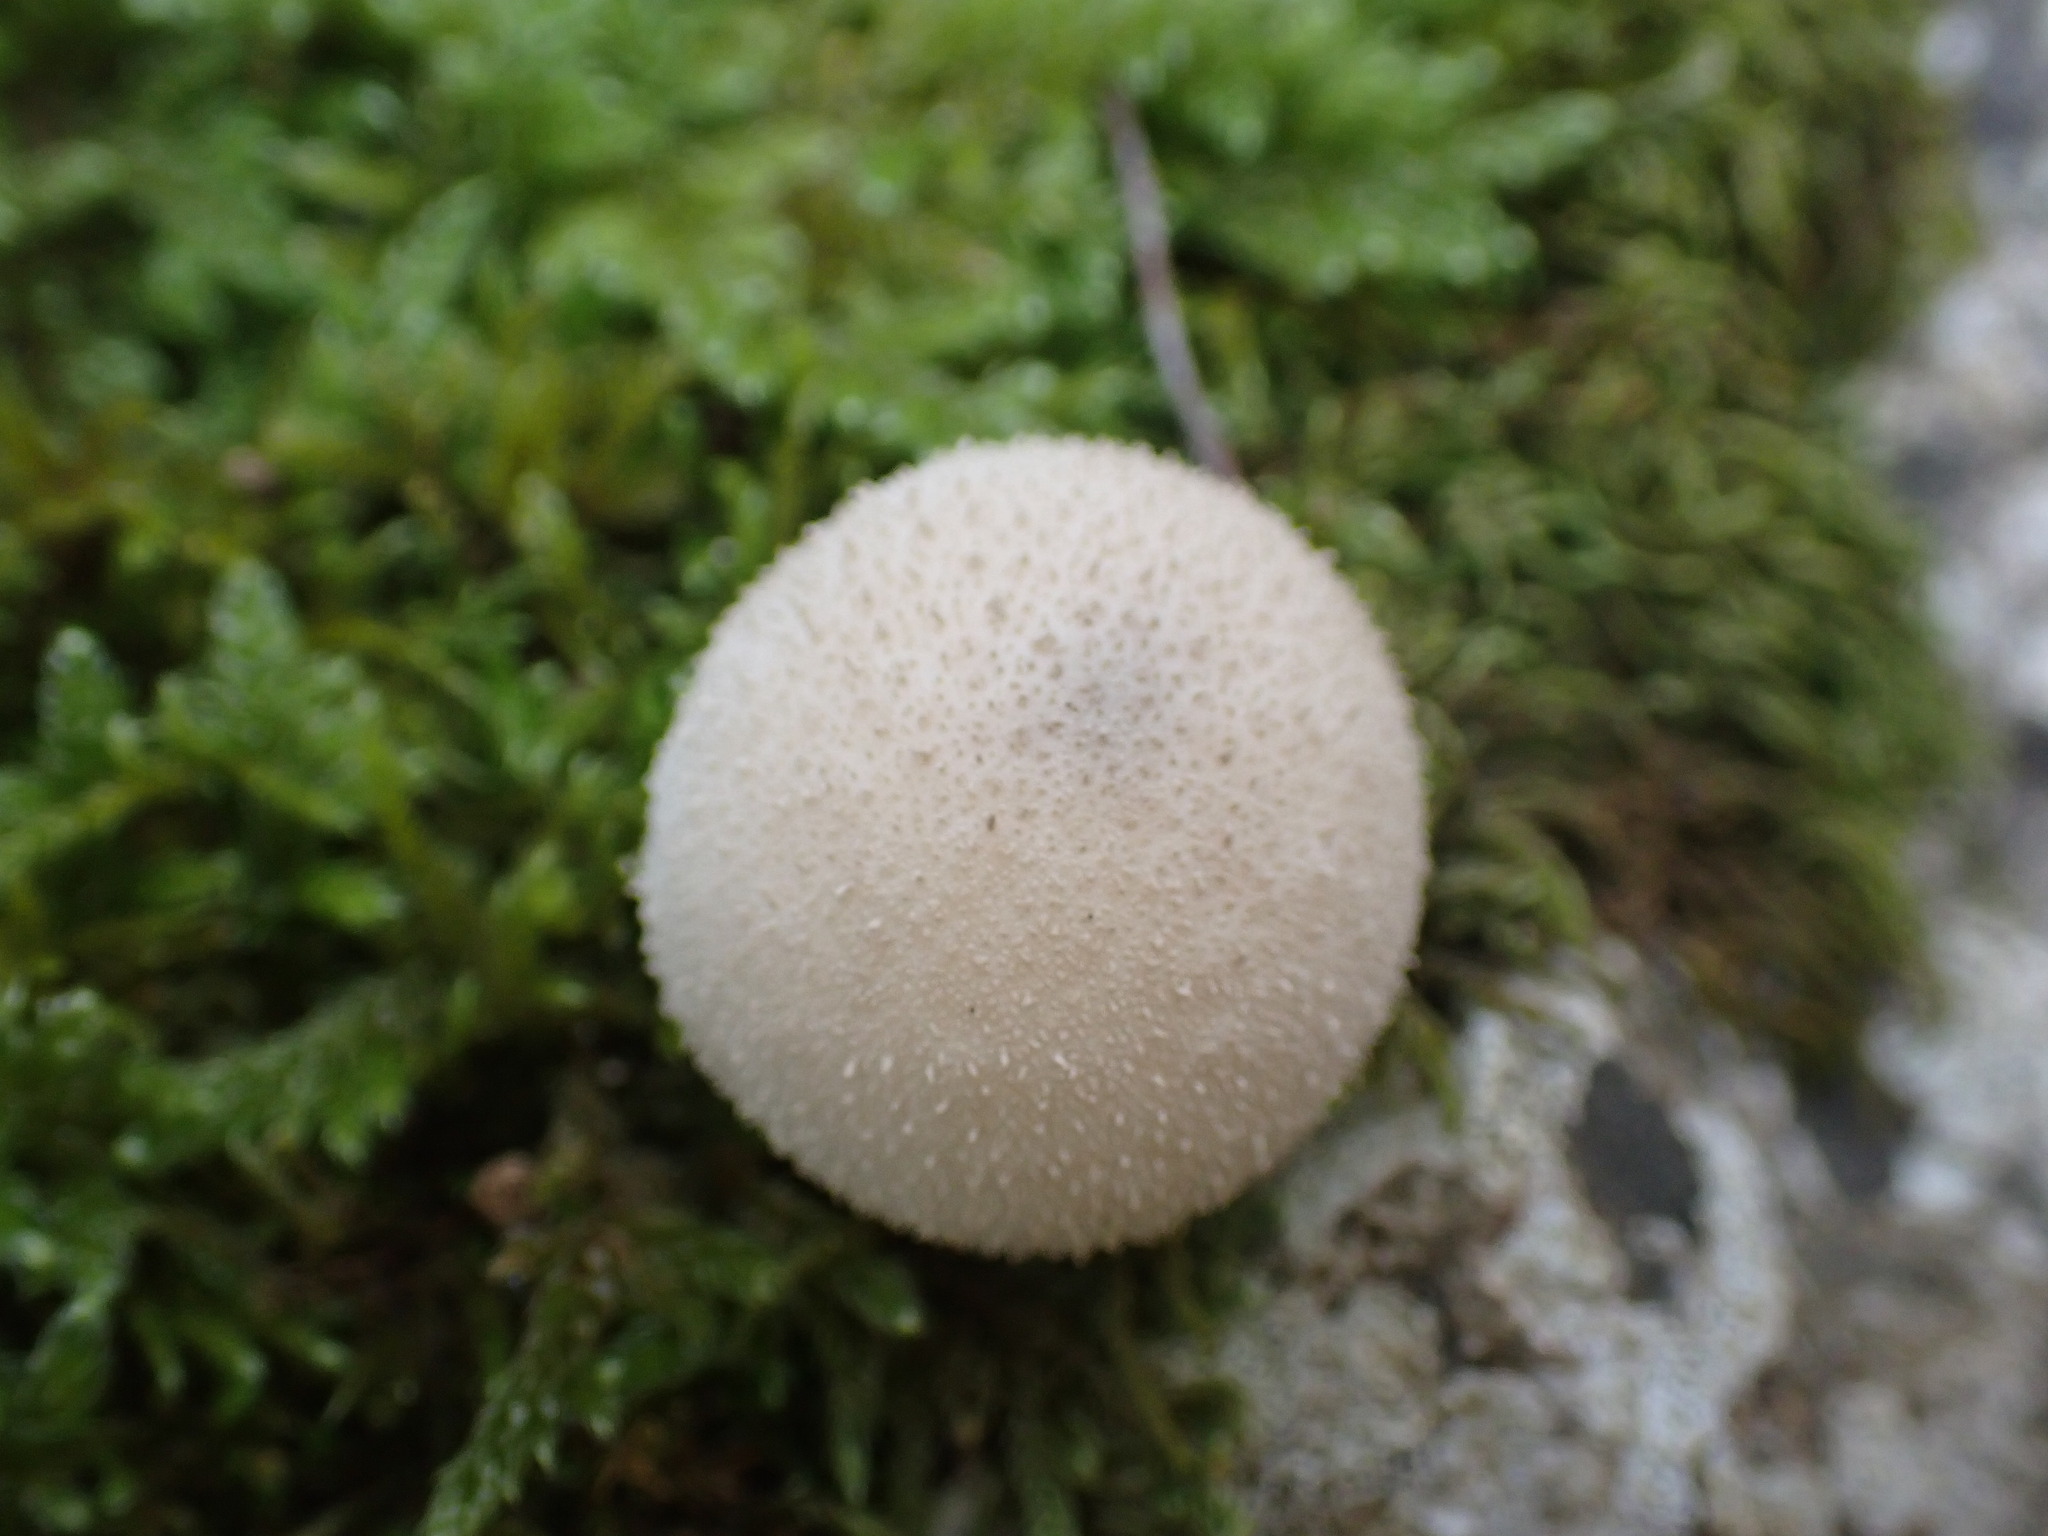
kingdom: Fungi
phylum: Basidiomycota
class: Agaricomycetes
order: Agaricales
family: Lycoperdaceae
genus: Lycoperdon
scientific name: Lycoperdon perlatum
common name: Common puffball
